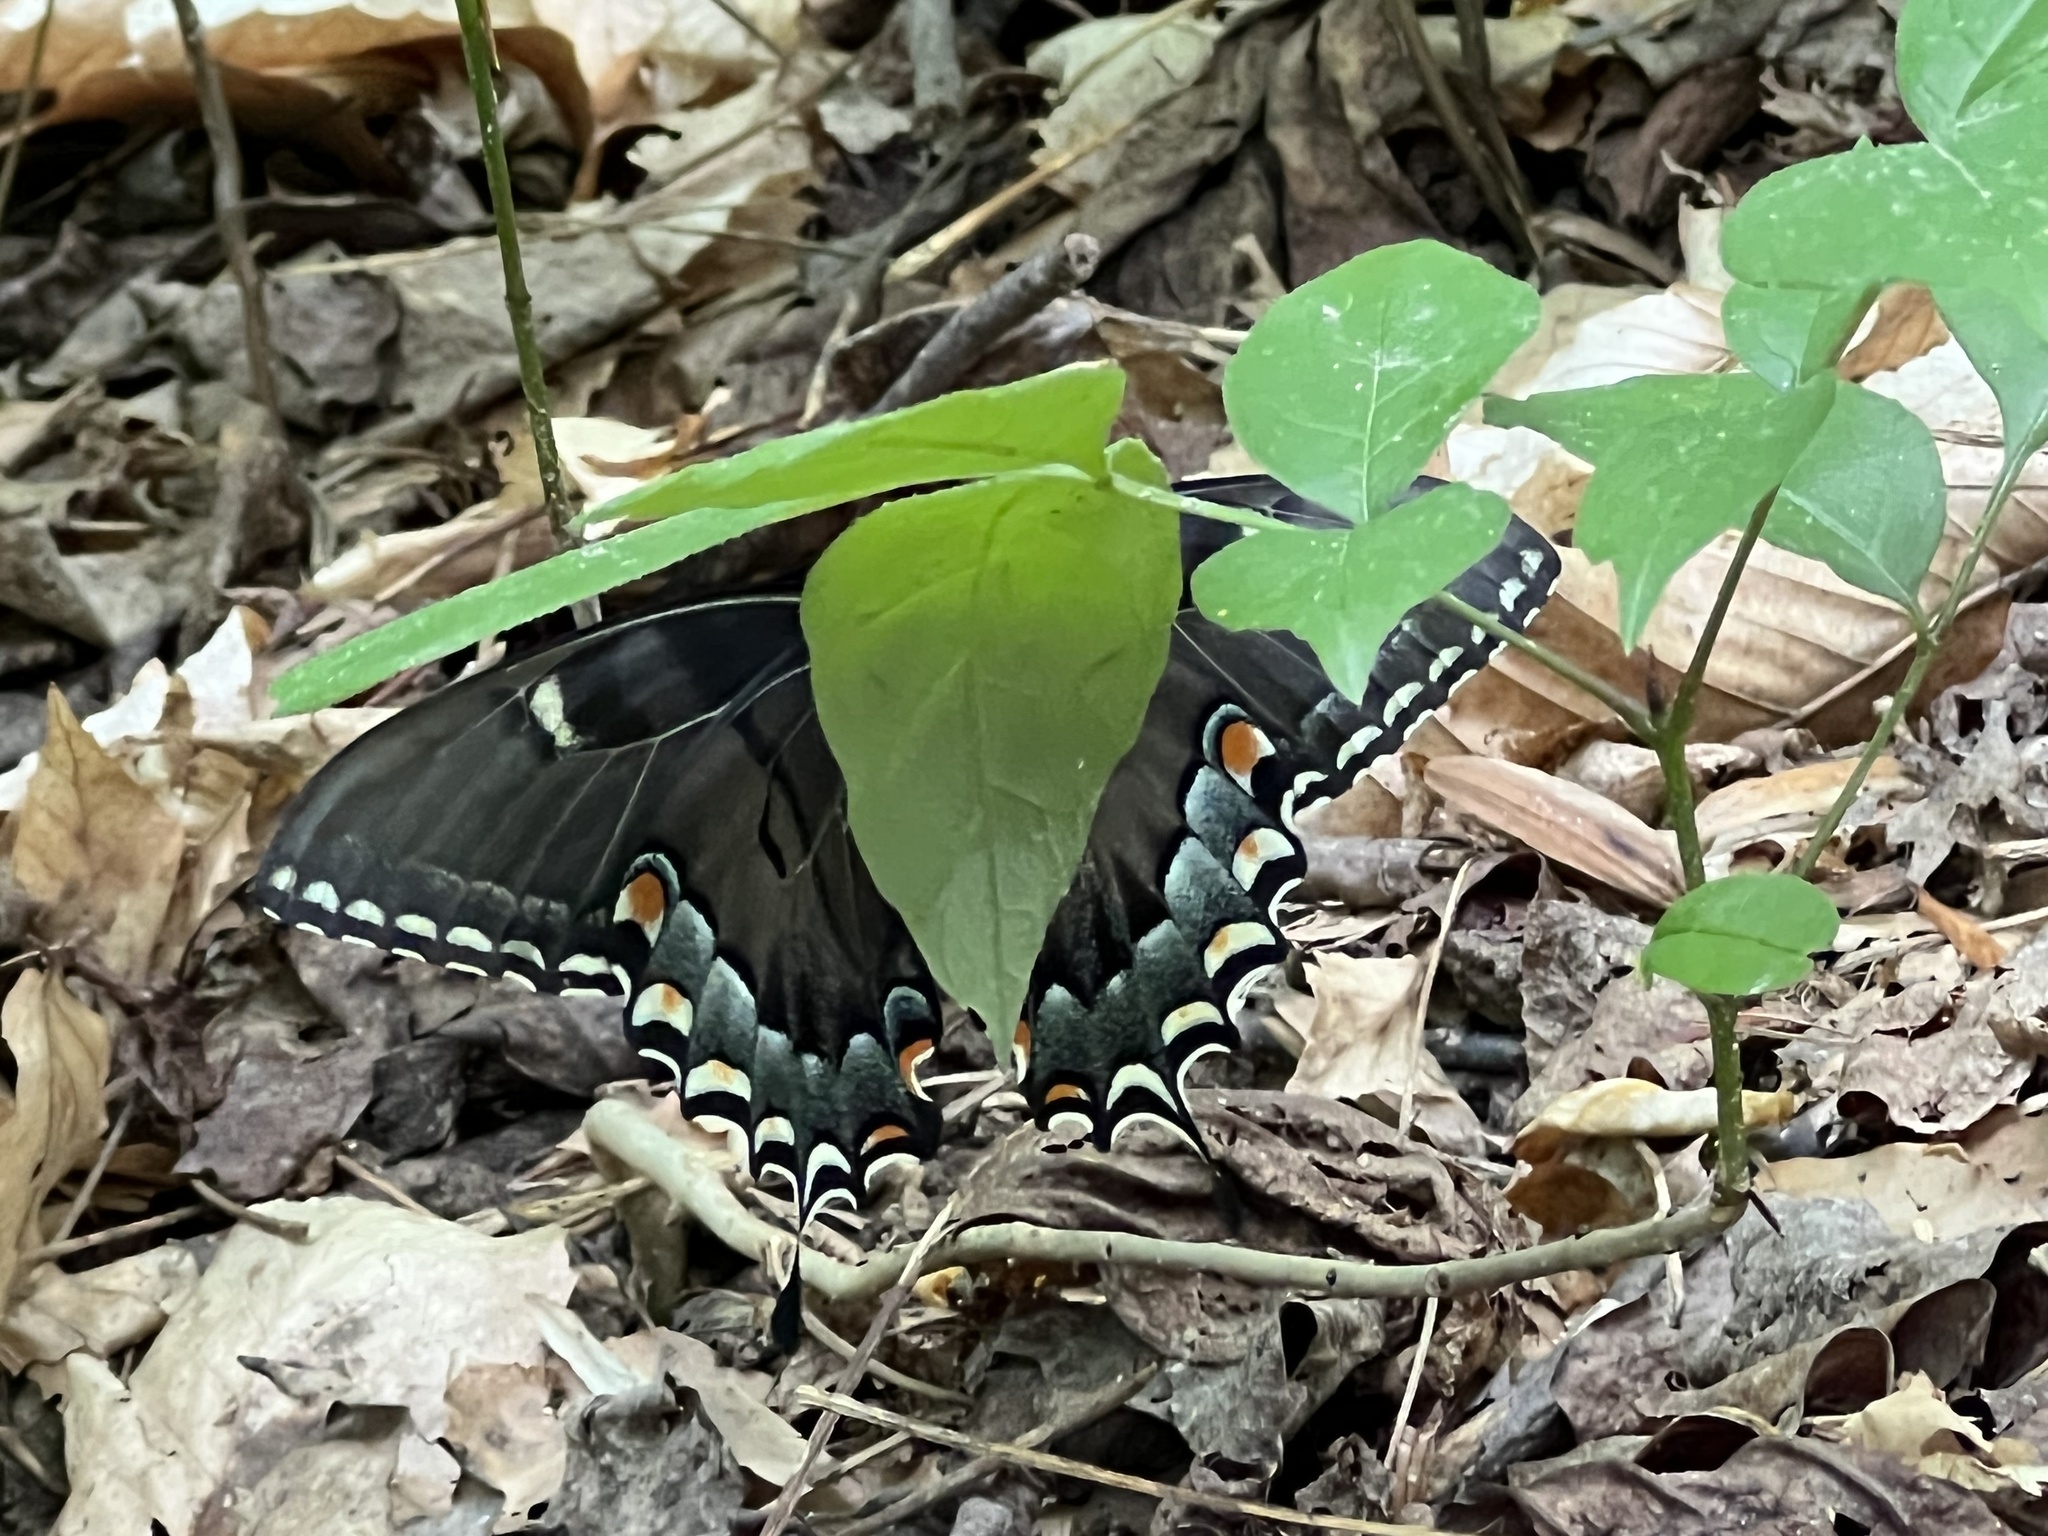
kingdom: Animalia
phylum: Arthropoda
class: Insecta
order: Lepidoptera
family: Papilionidae
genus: Papilio
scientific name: Papilio glaucus
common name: Tiger swallowtail
